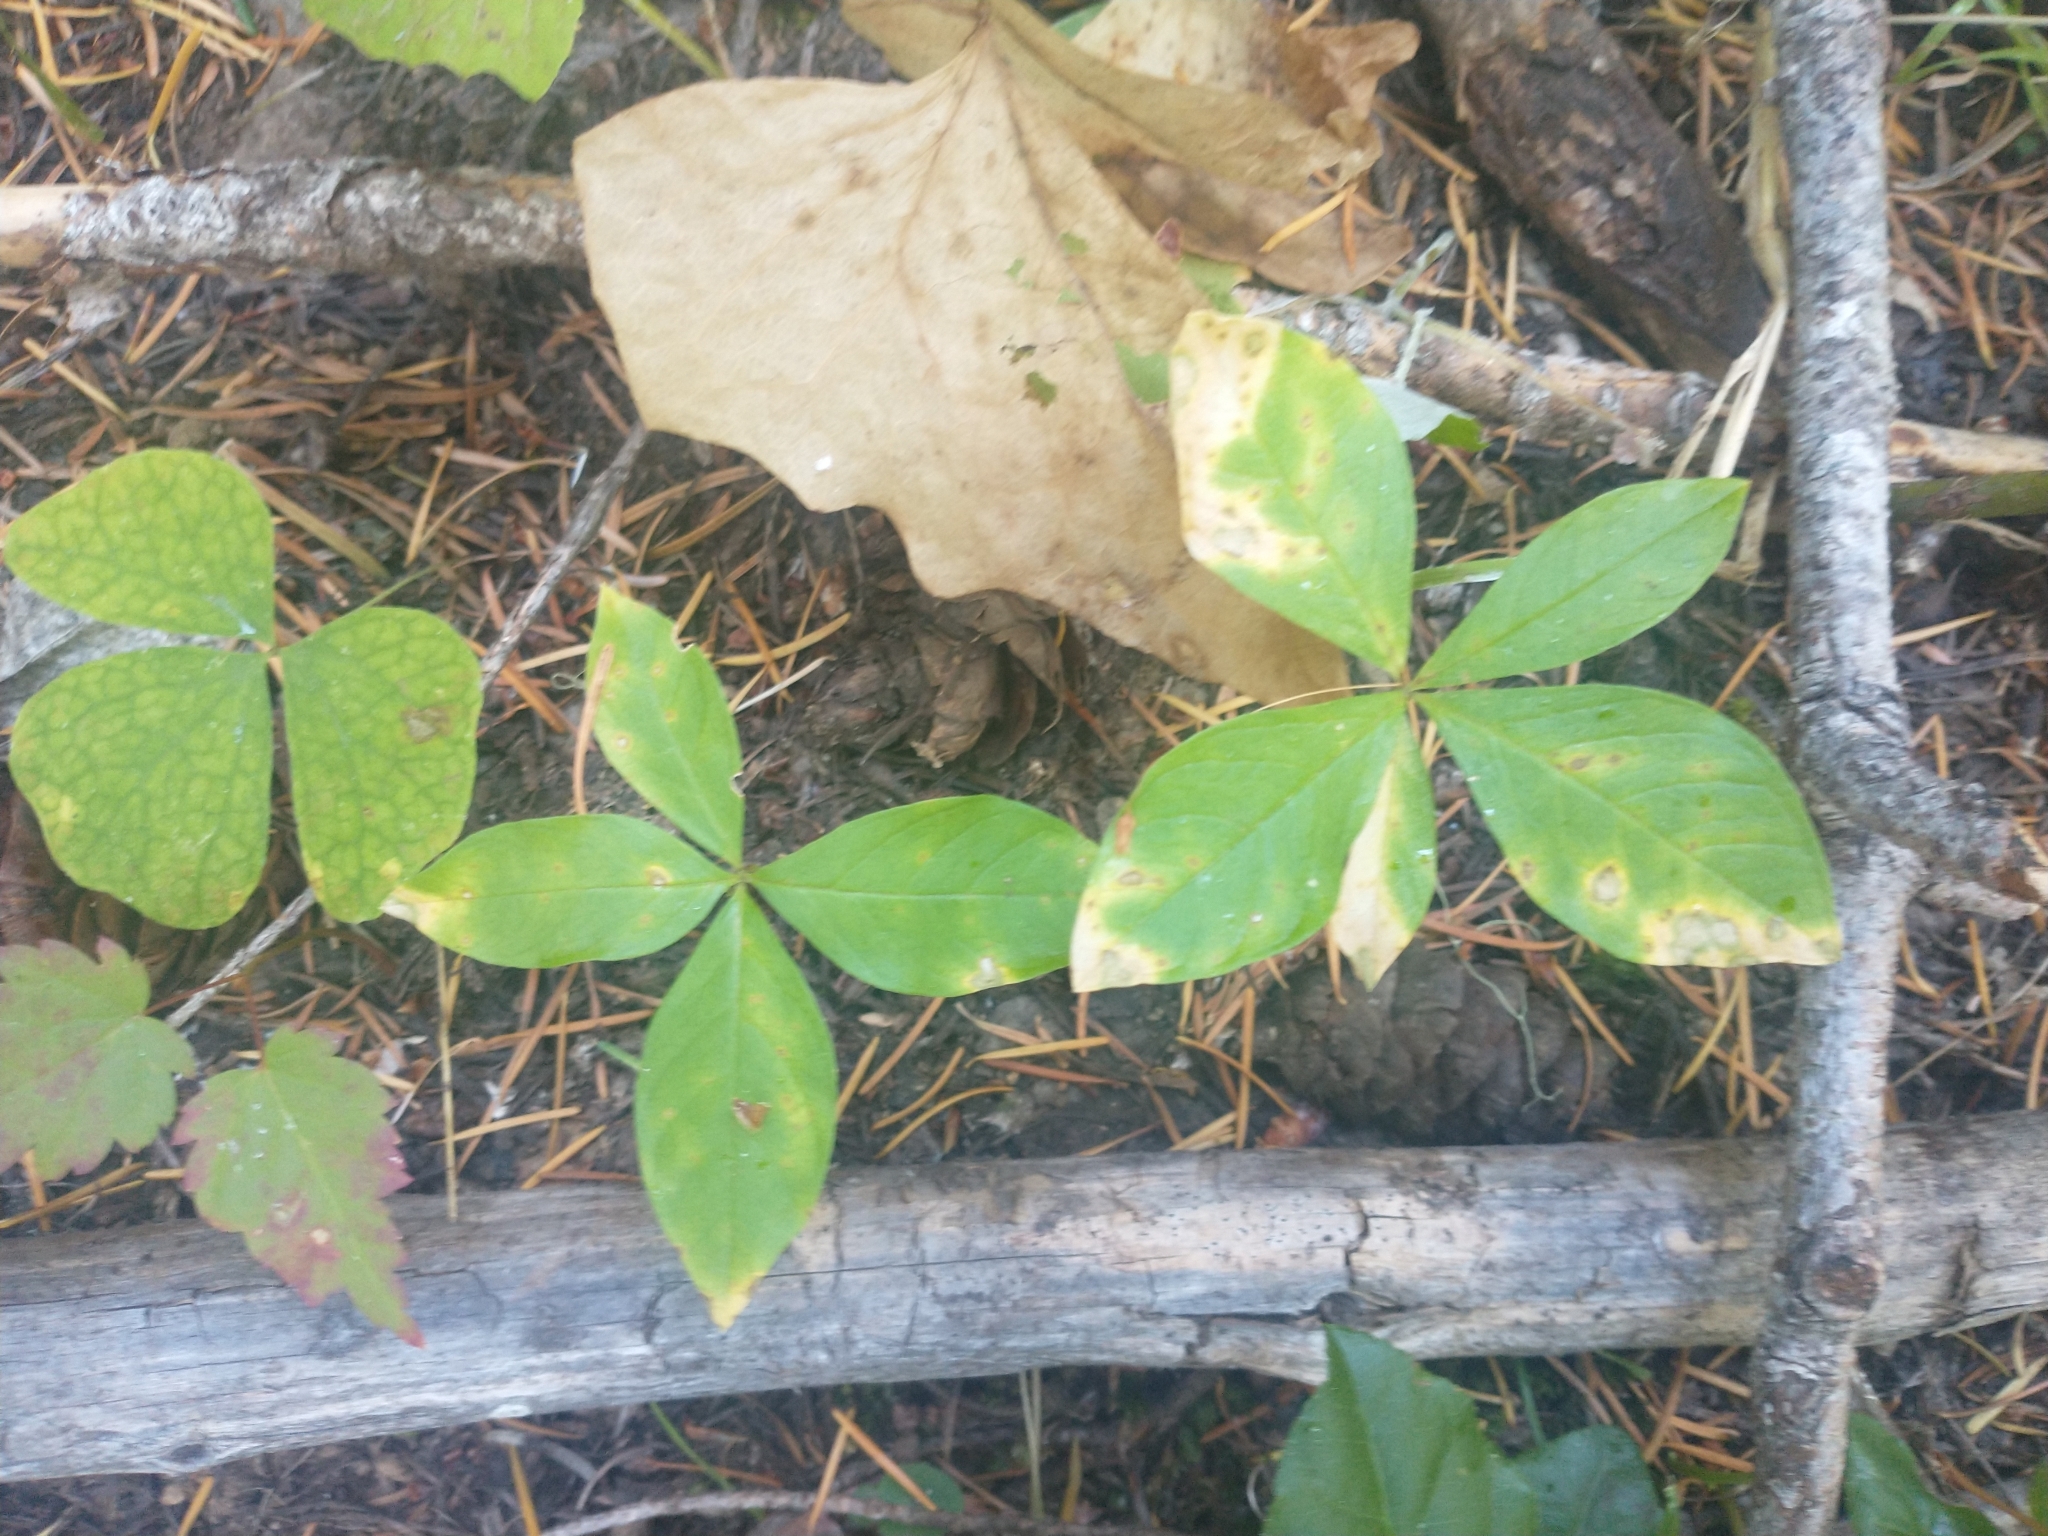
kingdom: Plantae
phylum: Tracheophyta
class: Magnoliopsida
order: Ericales
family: Primulaceae
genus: Lysimachia
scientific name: Lysimachia latifolia
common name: Pacific starflower
